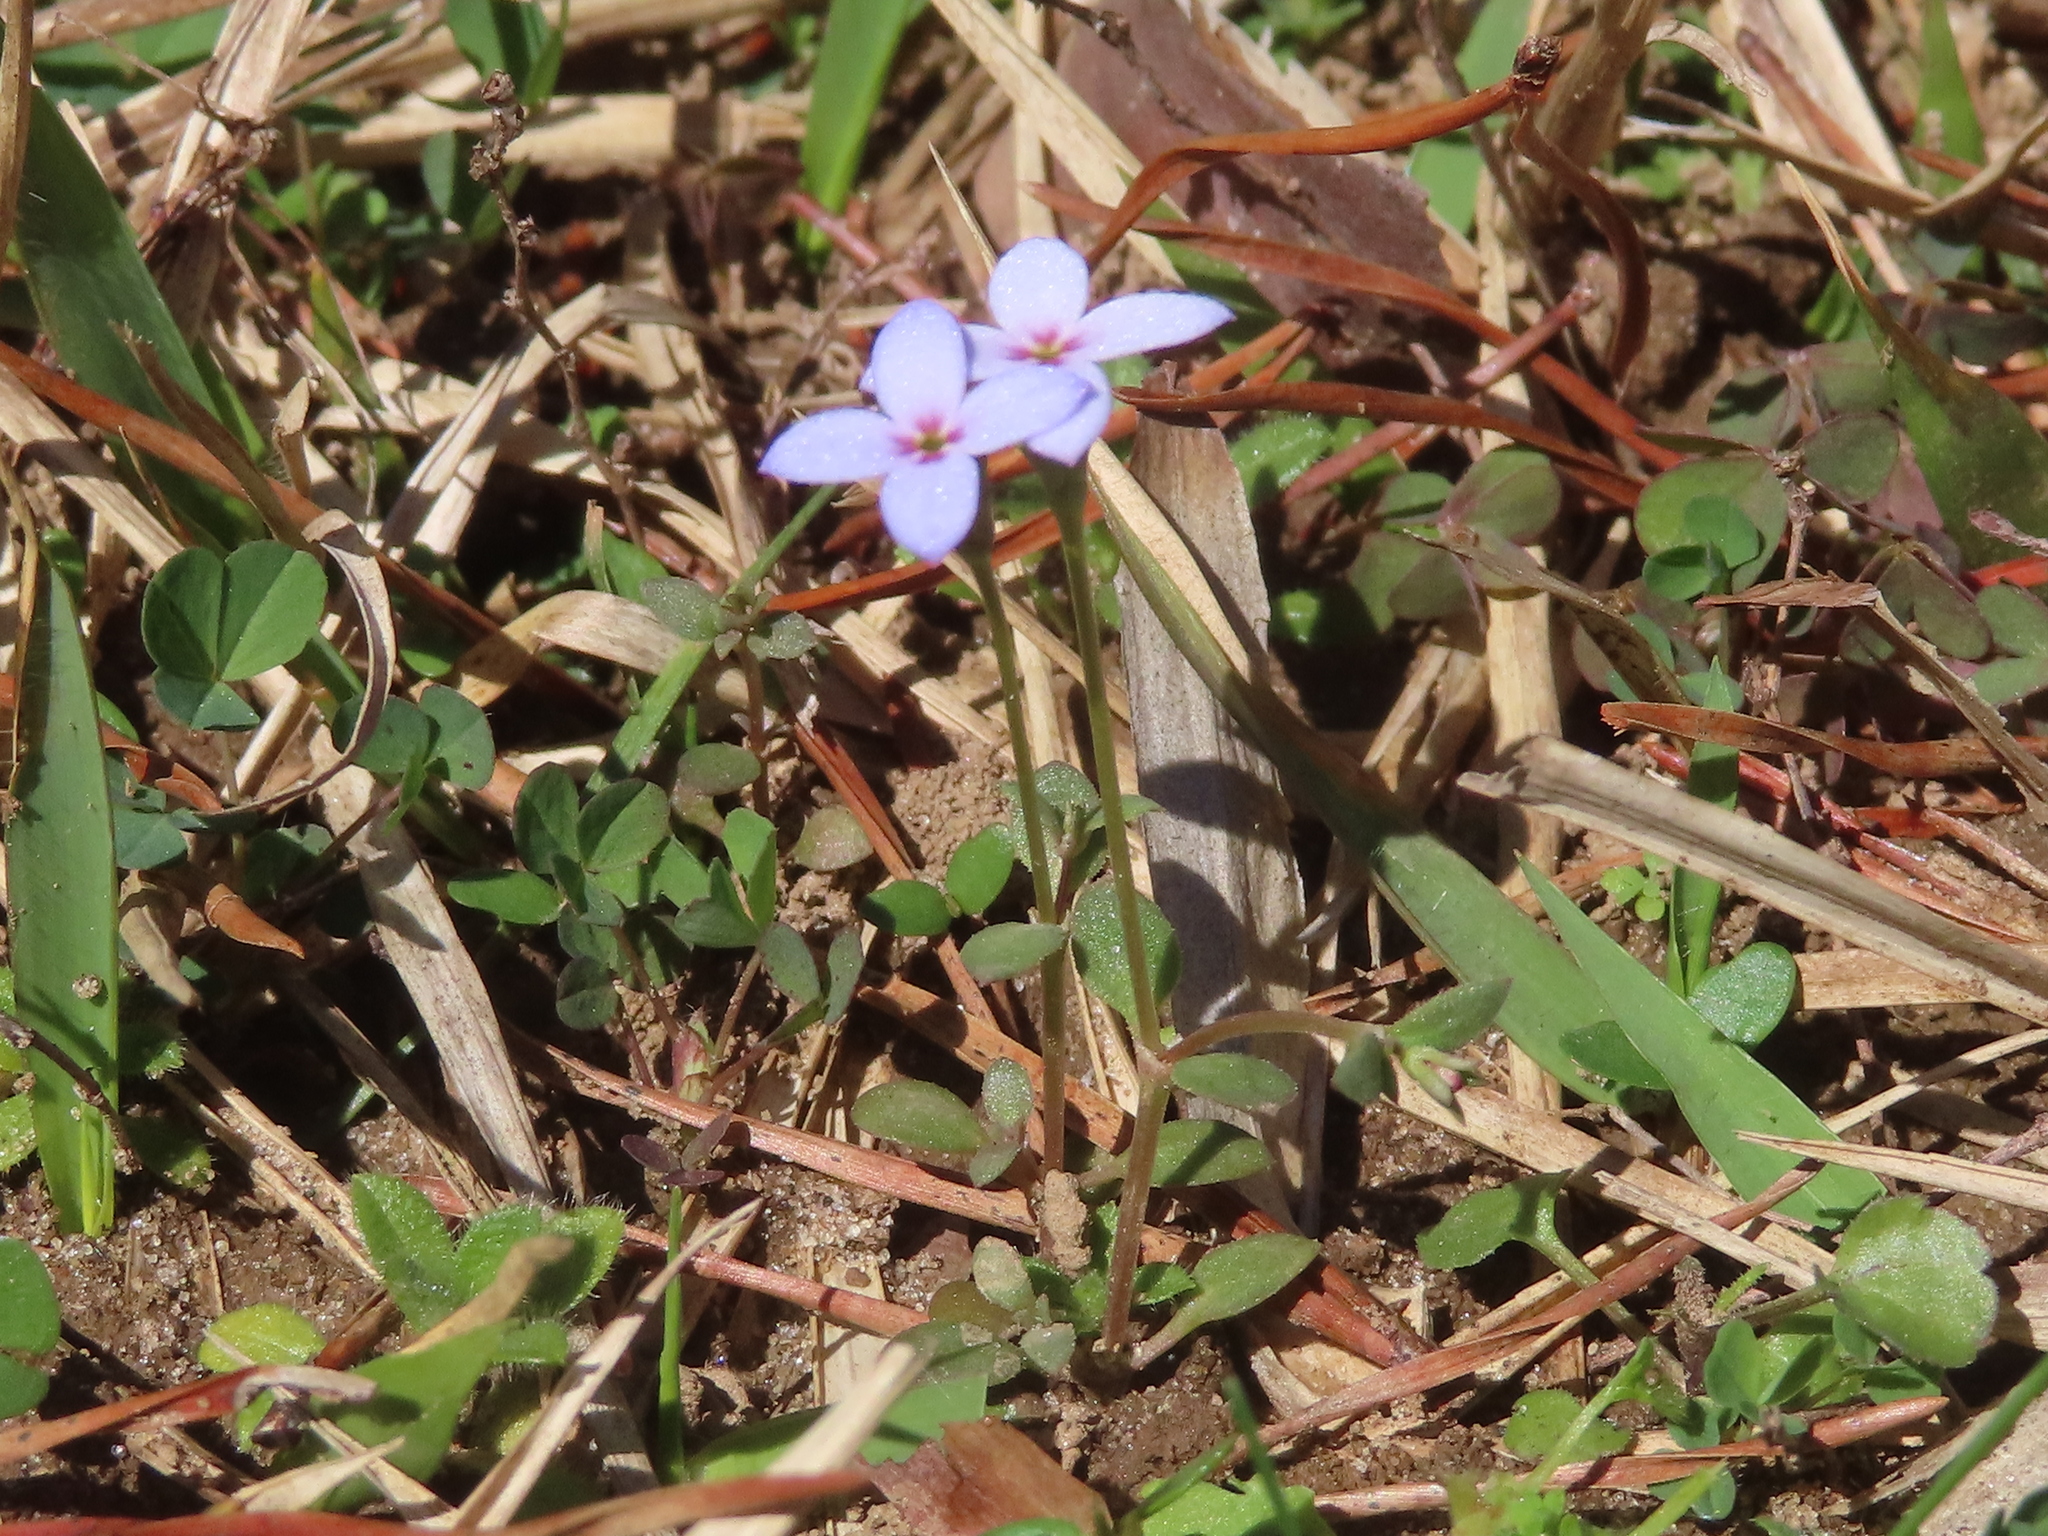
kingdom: Plantae
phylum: Tracheophyta
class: Magnoliopsida
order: Gentianales
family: Rubiaceae
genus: Houstonia
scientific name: Houstonia pusilla
